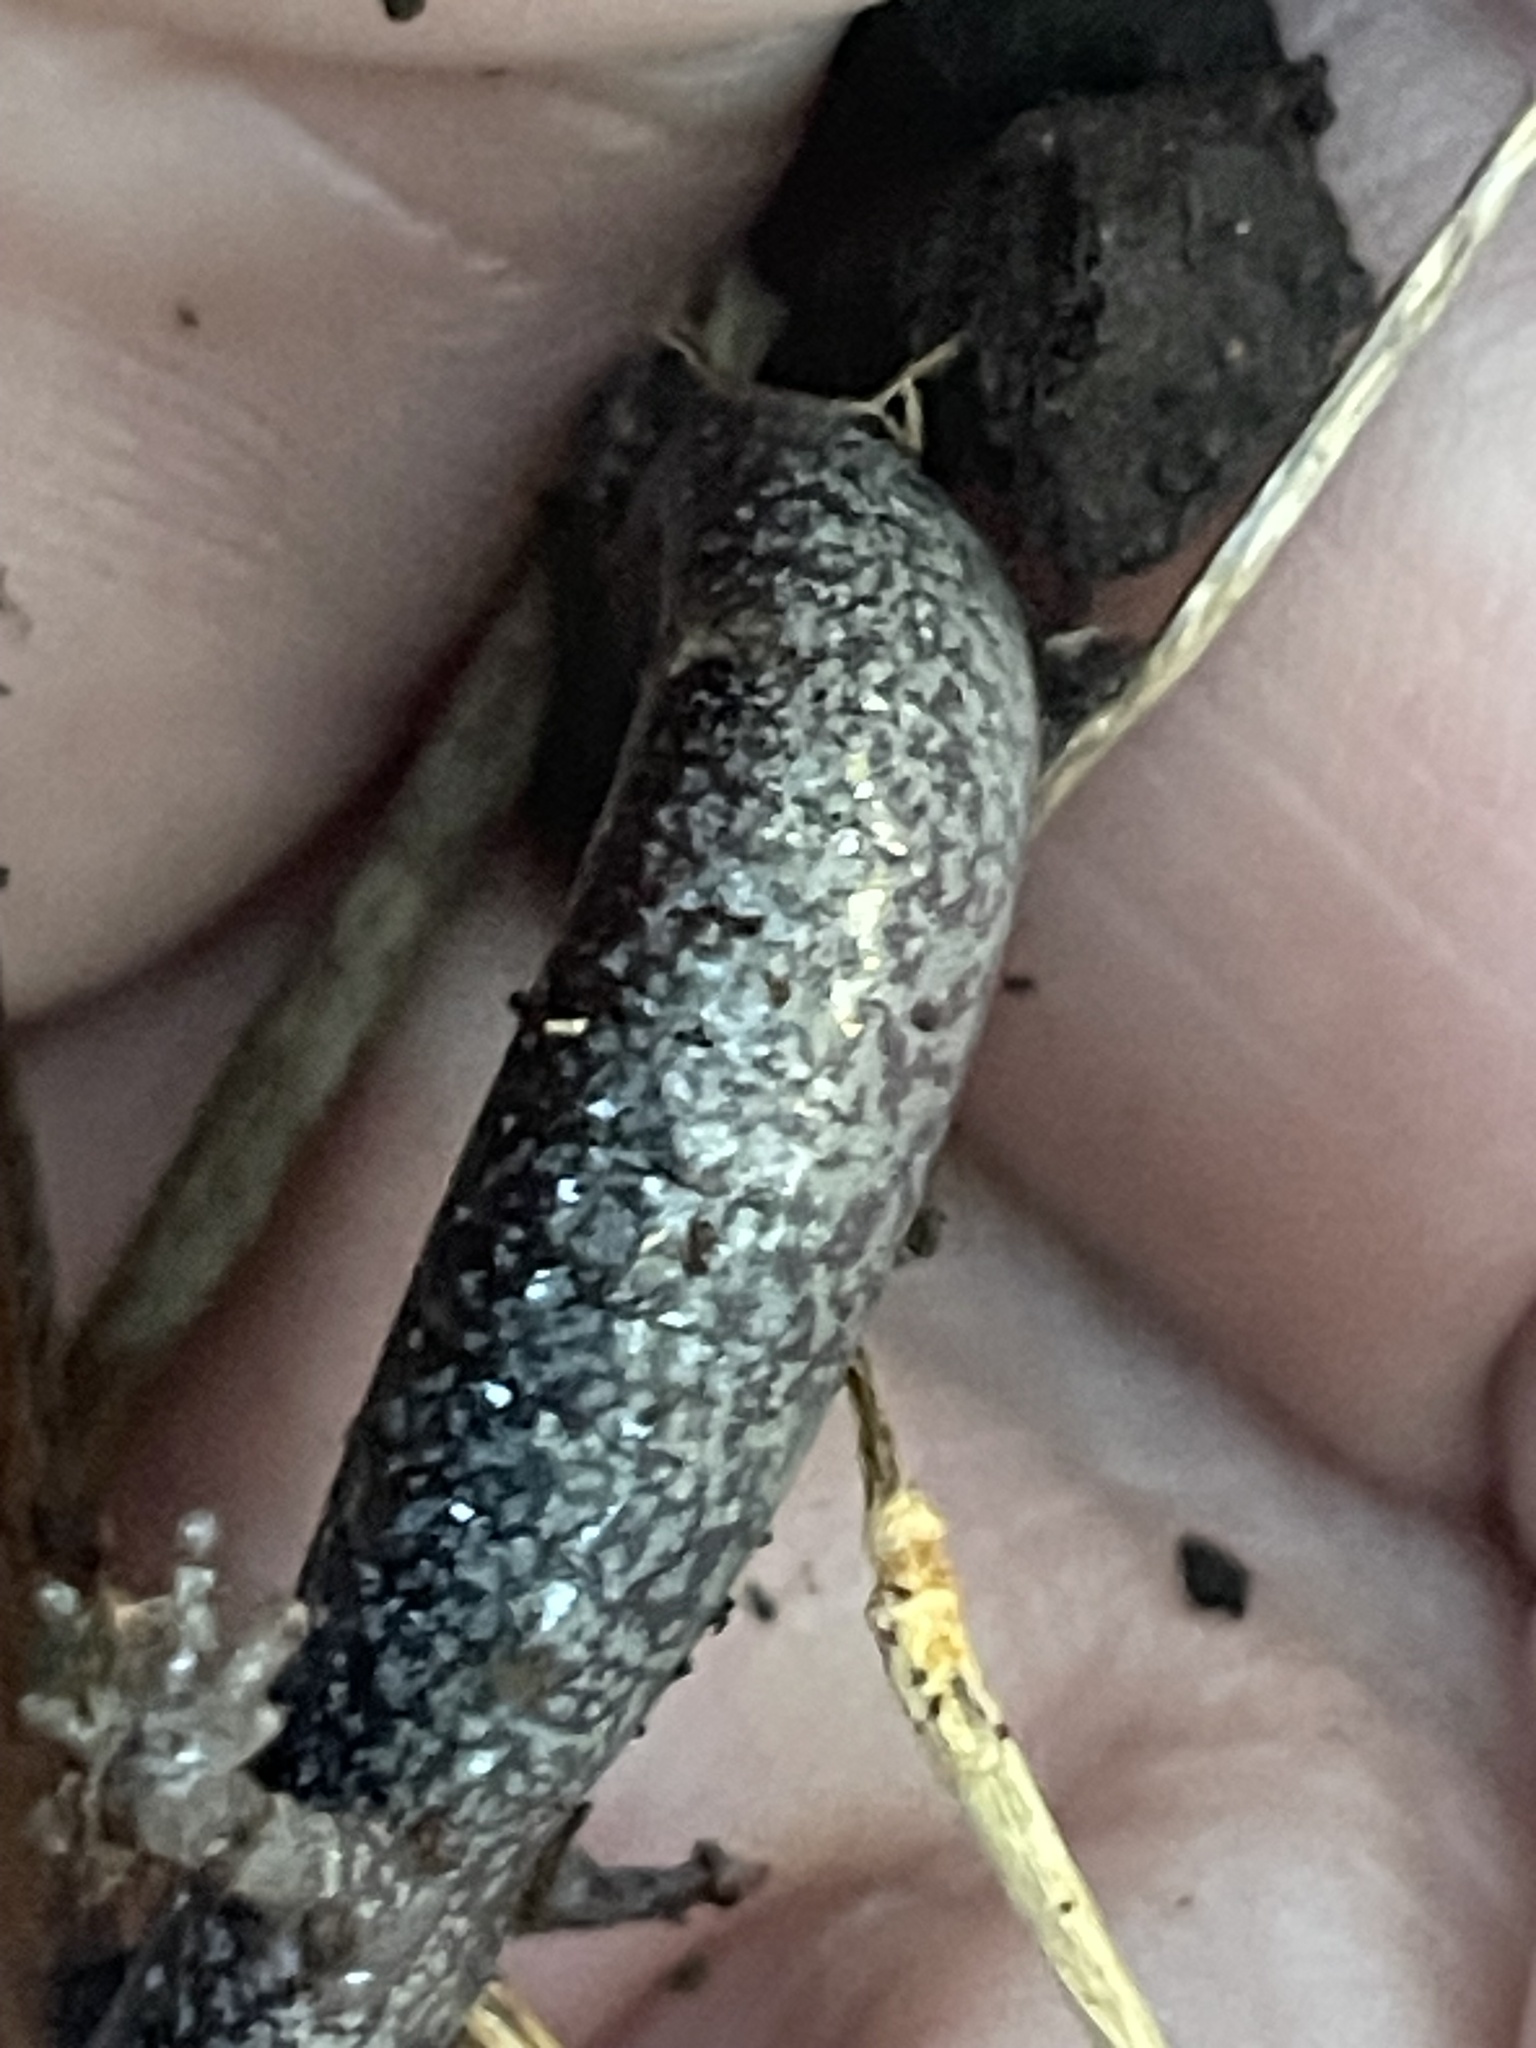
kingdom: Animalia
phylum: Chordata
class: Amphibia
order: Caudata
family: Plethodontidae
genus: Plethodon
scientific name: Plethodon cinereus
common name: Redback salamander
